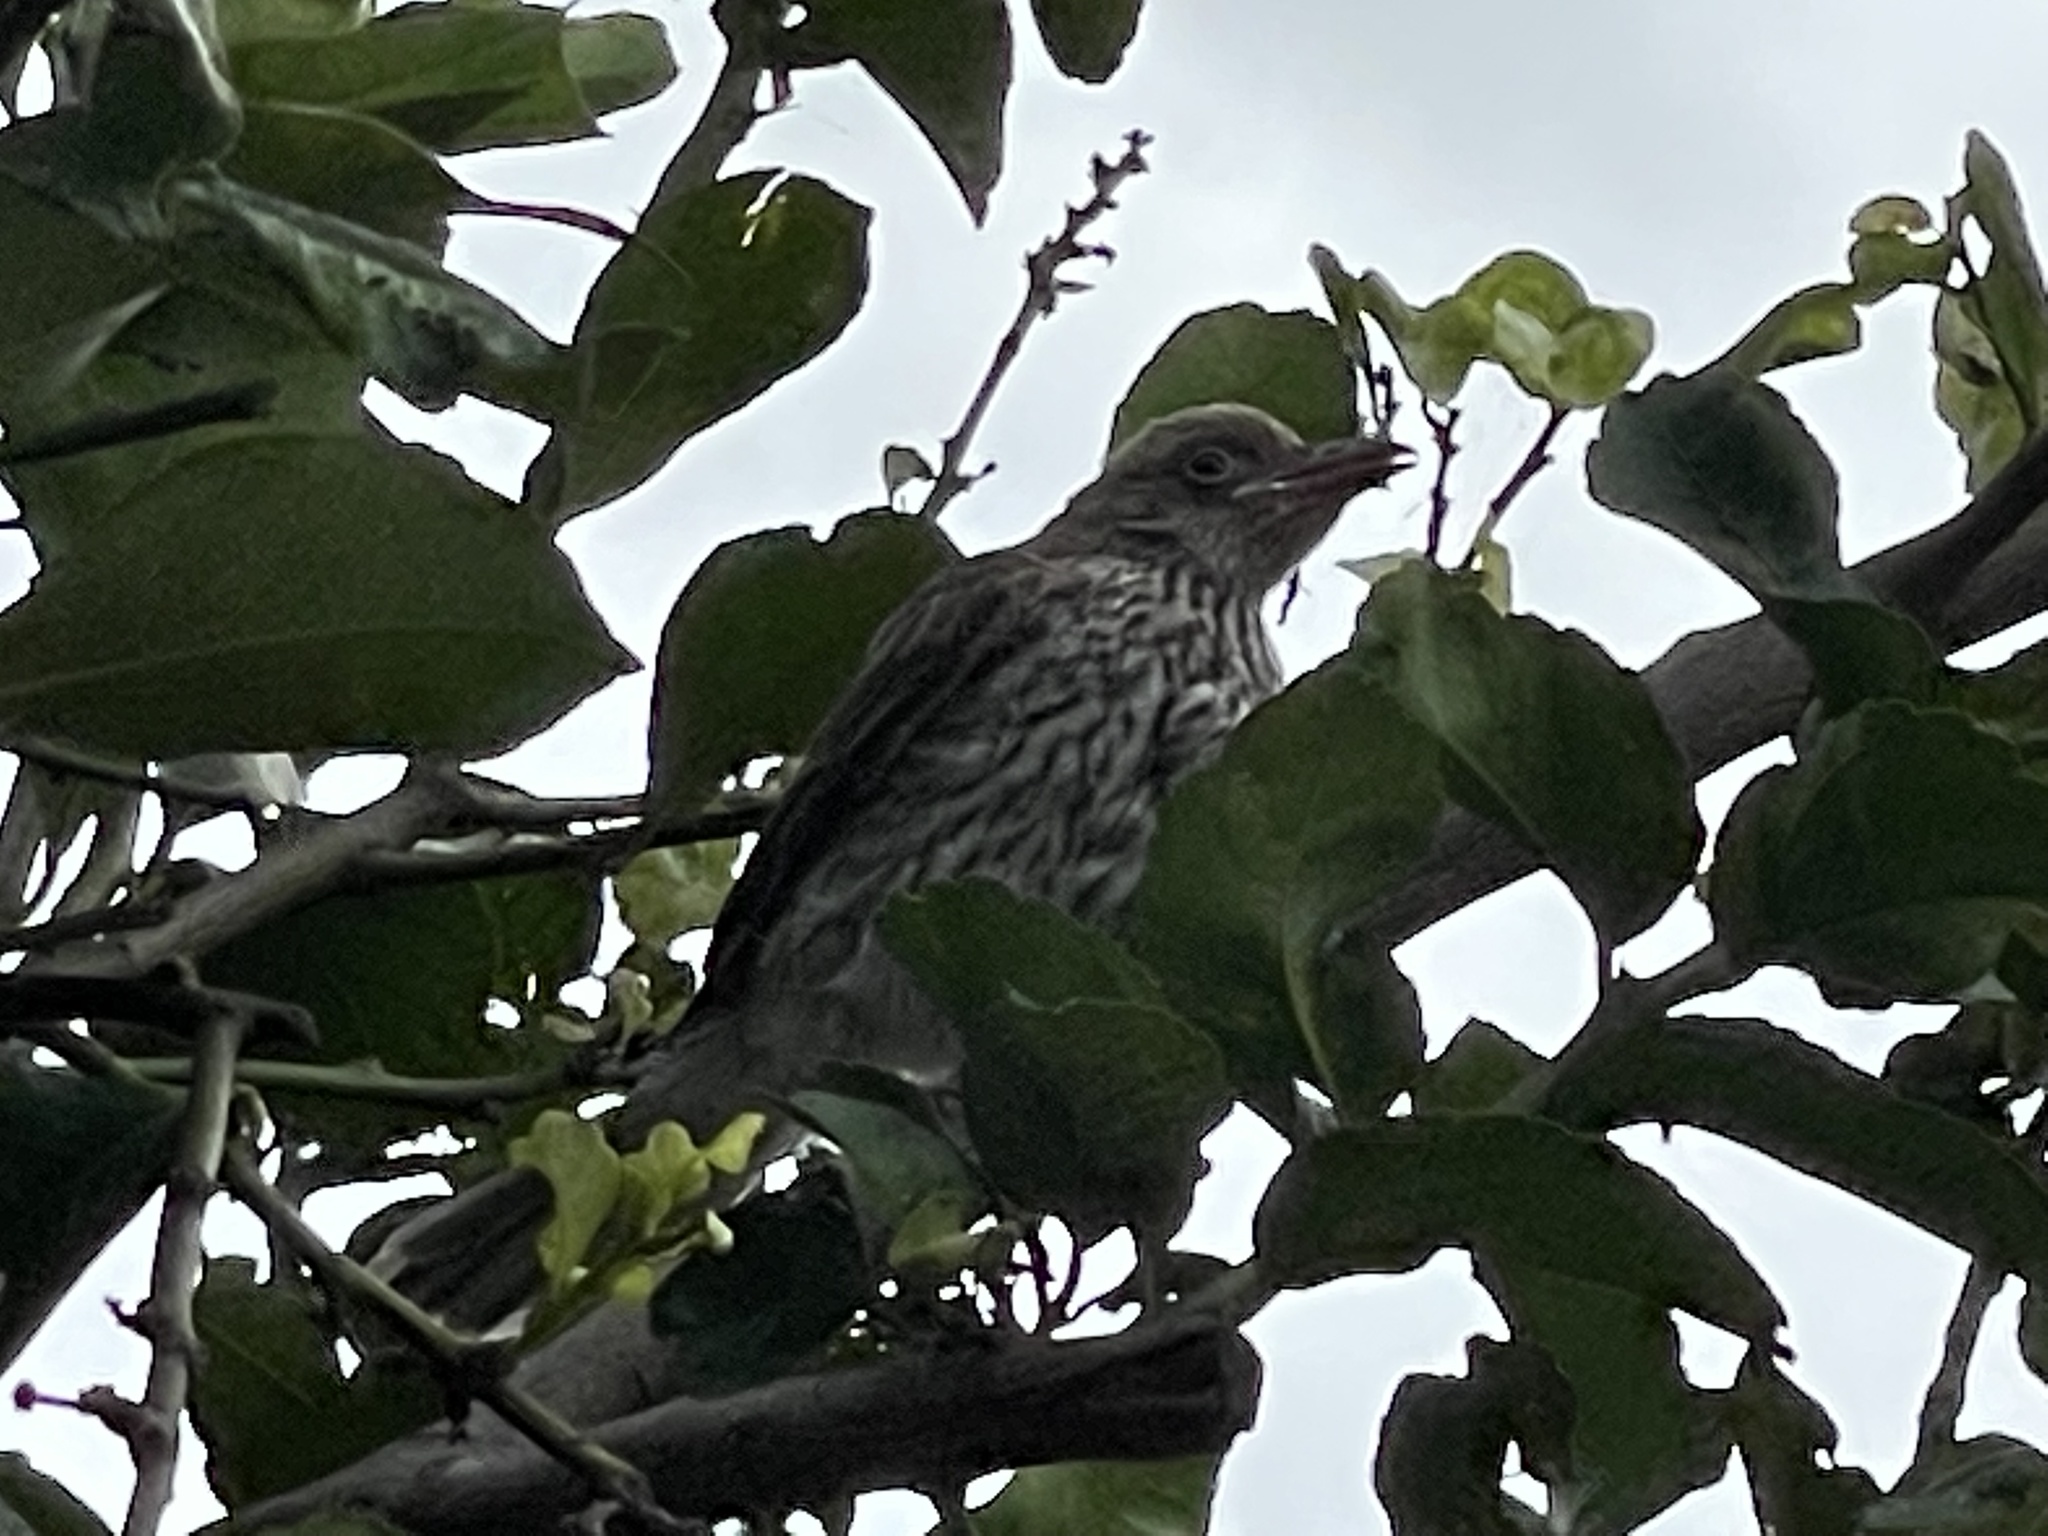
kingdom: Animalia
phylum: Chordata
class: Aves
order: Passeriformes
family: Oriolidae
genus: Oriolus
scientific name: Oriolus sagittatus
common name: Olive-backed oriole
